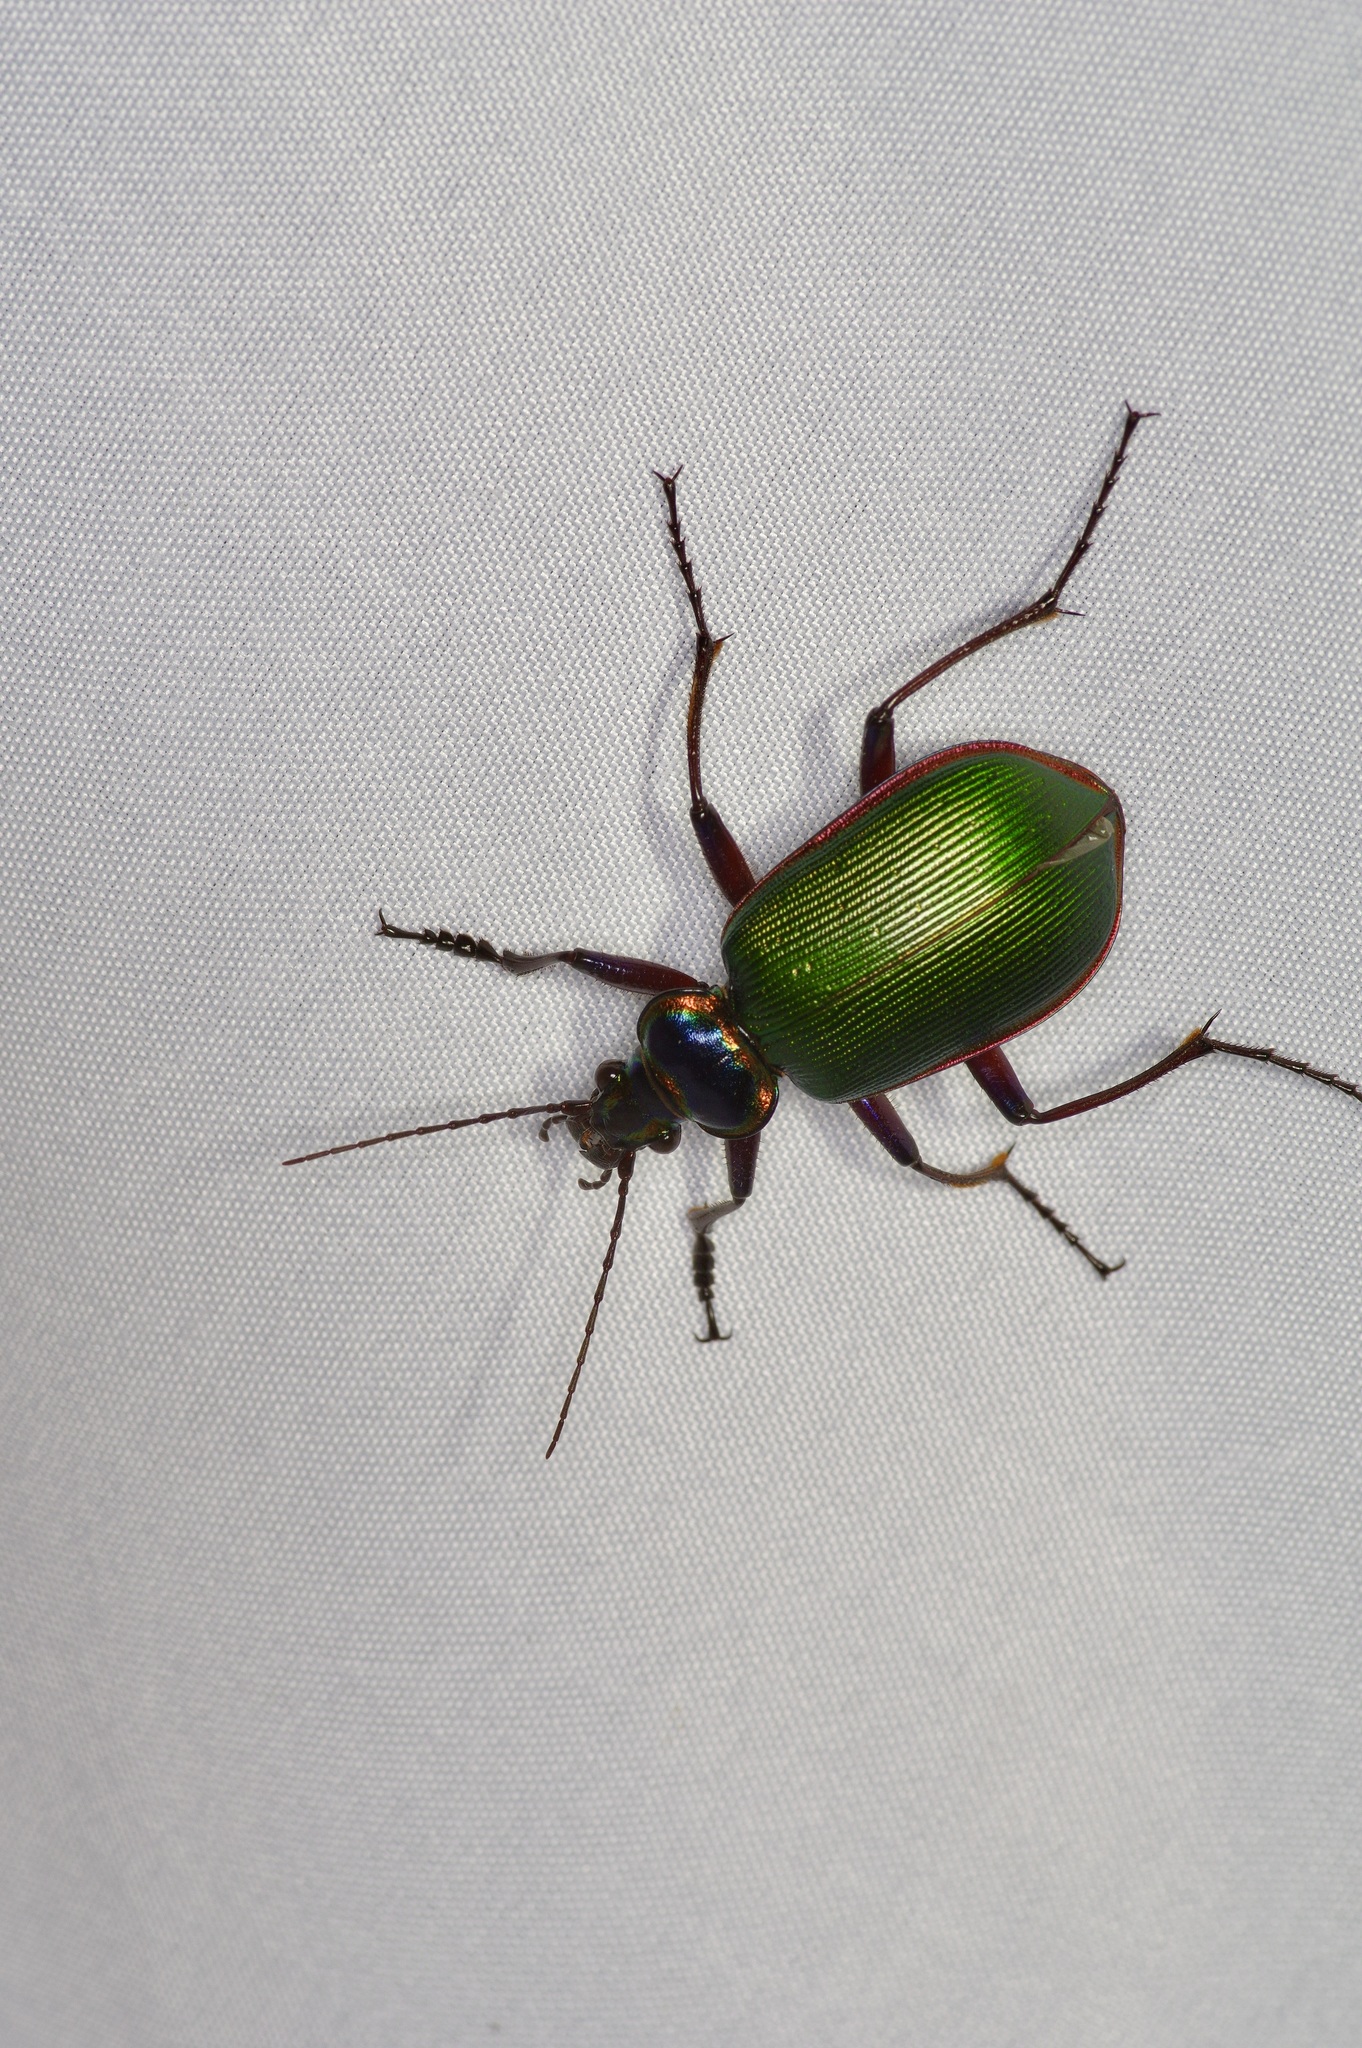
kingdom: Animalia
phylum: Arthropoda
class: Insecta
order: Coleoptera
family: Carabidae
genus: Calosoma
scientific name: Calosoma scrutator
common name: Fiery searcher beetle
